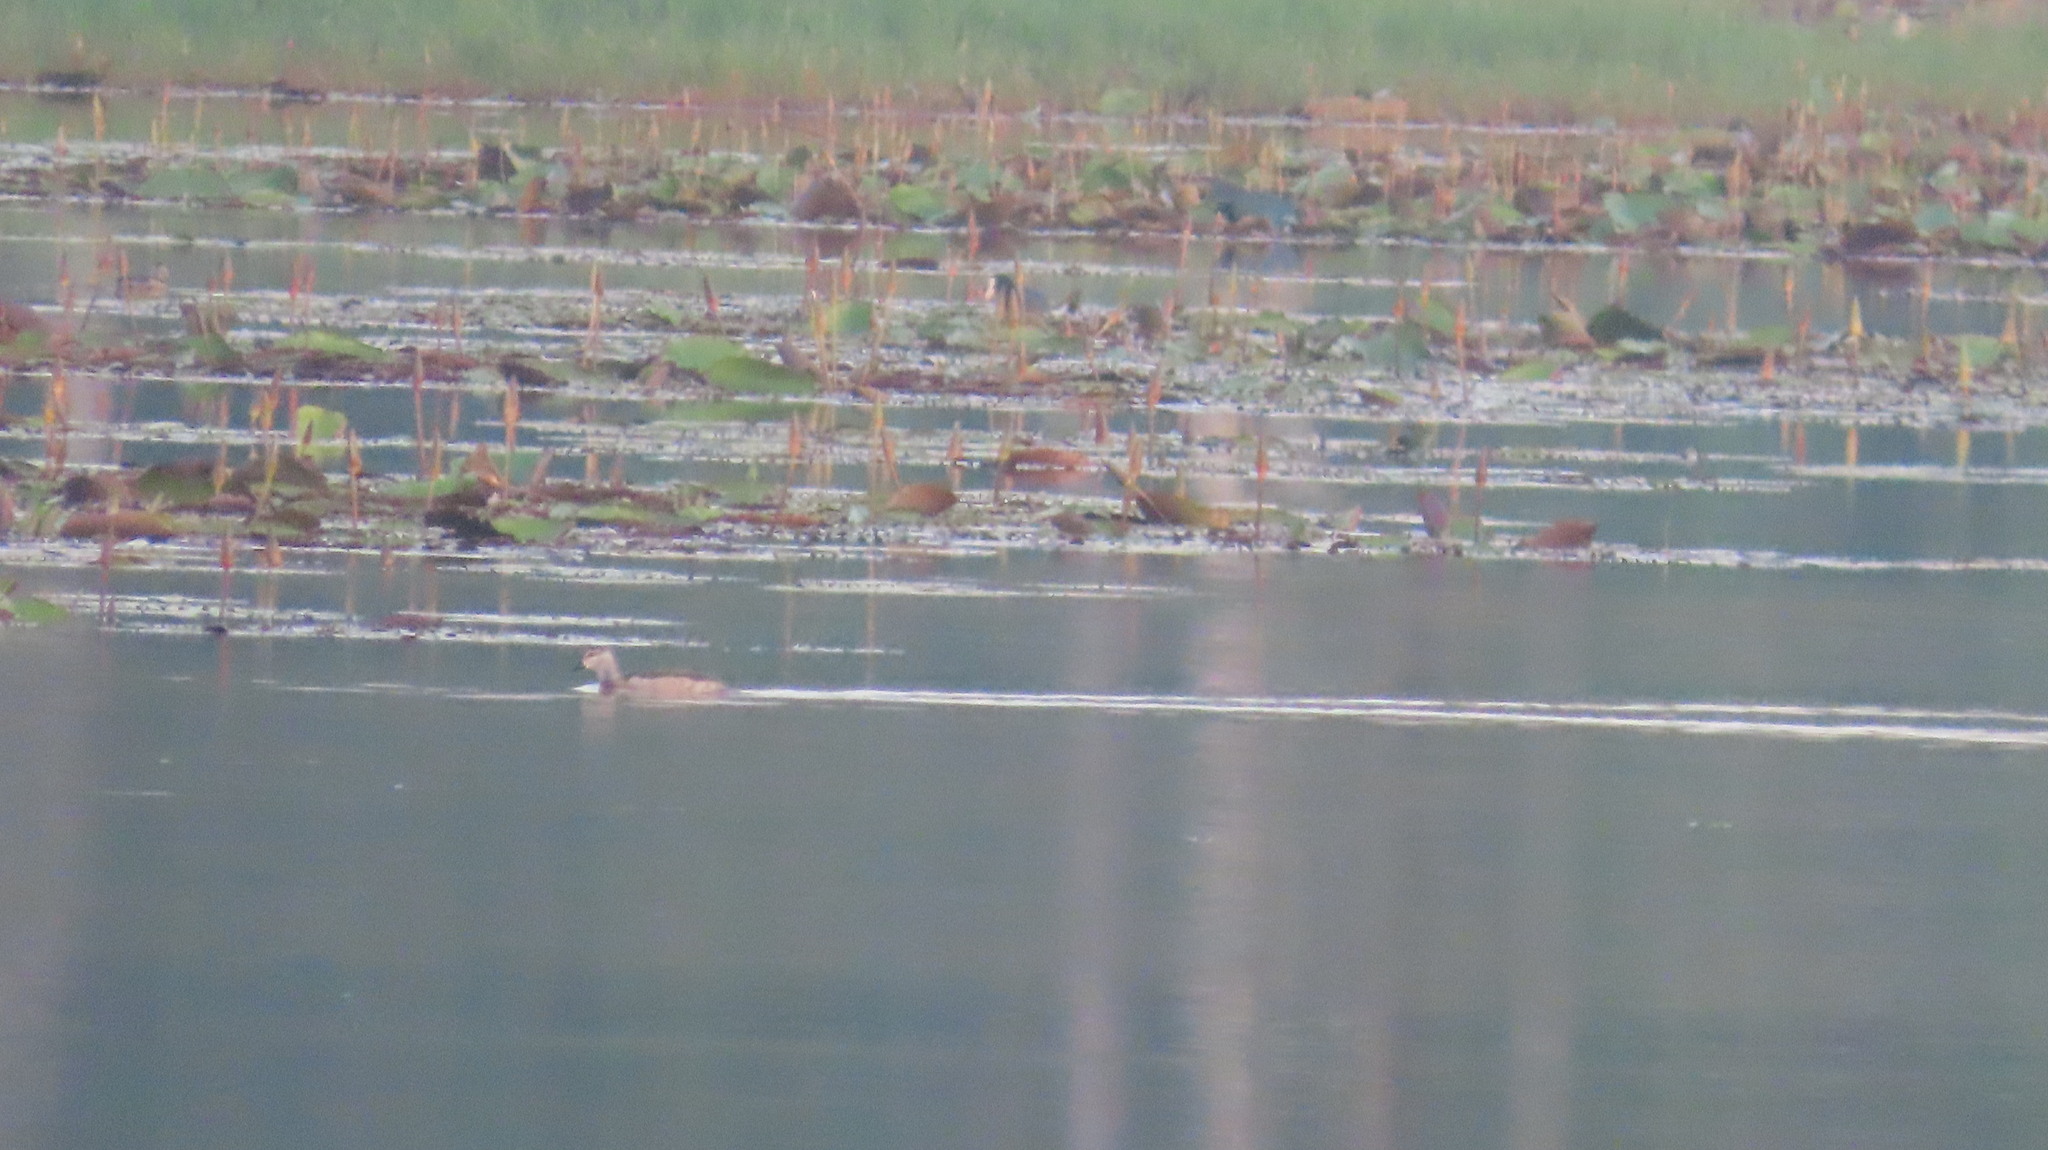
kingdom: Animalia
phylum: Chordata
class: Aves
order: Anseriformes
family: Anatidae
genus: Nettapus
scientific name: Nettapus coromandelianus
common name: Cotton pygmy-goose
